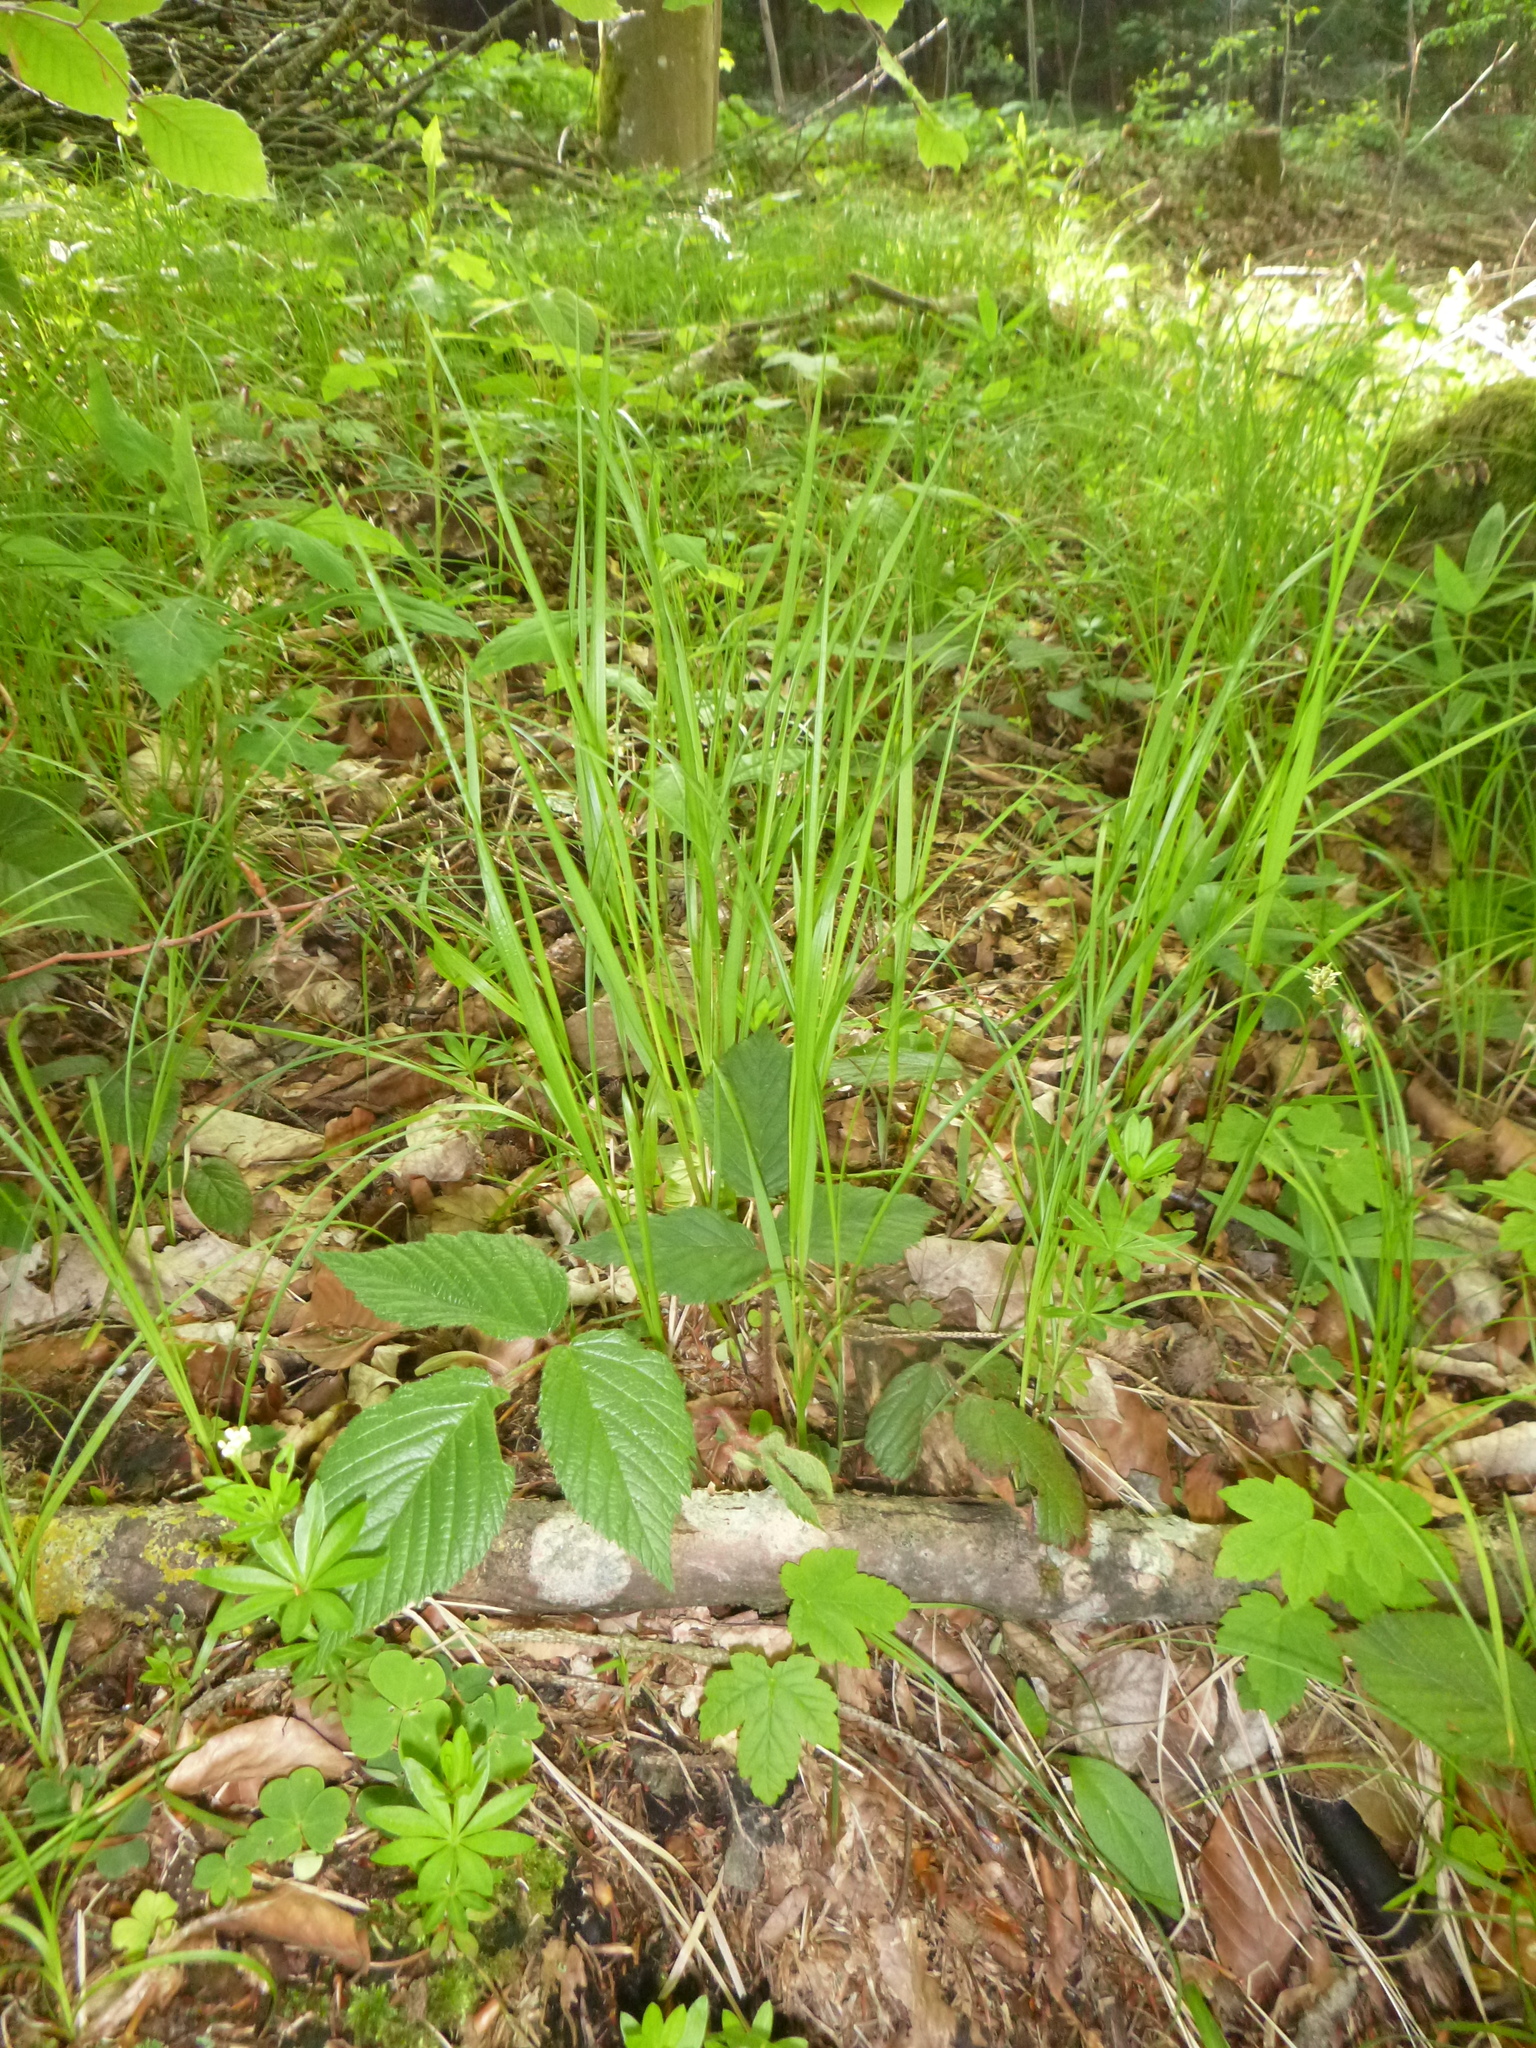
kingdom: Plantae
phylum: Tracheophyta
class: Liliopsida
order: Poales
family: Poaceae
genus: Melica
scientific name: Melica nutans
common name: Mountain melick
